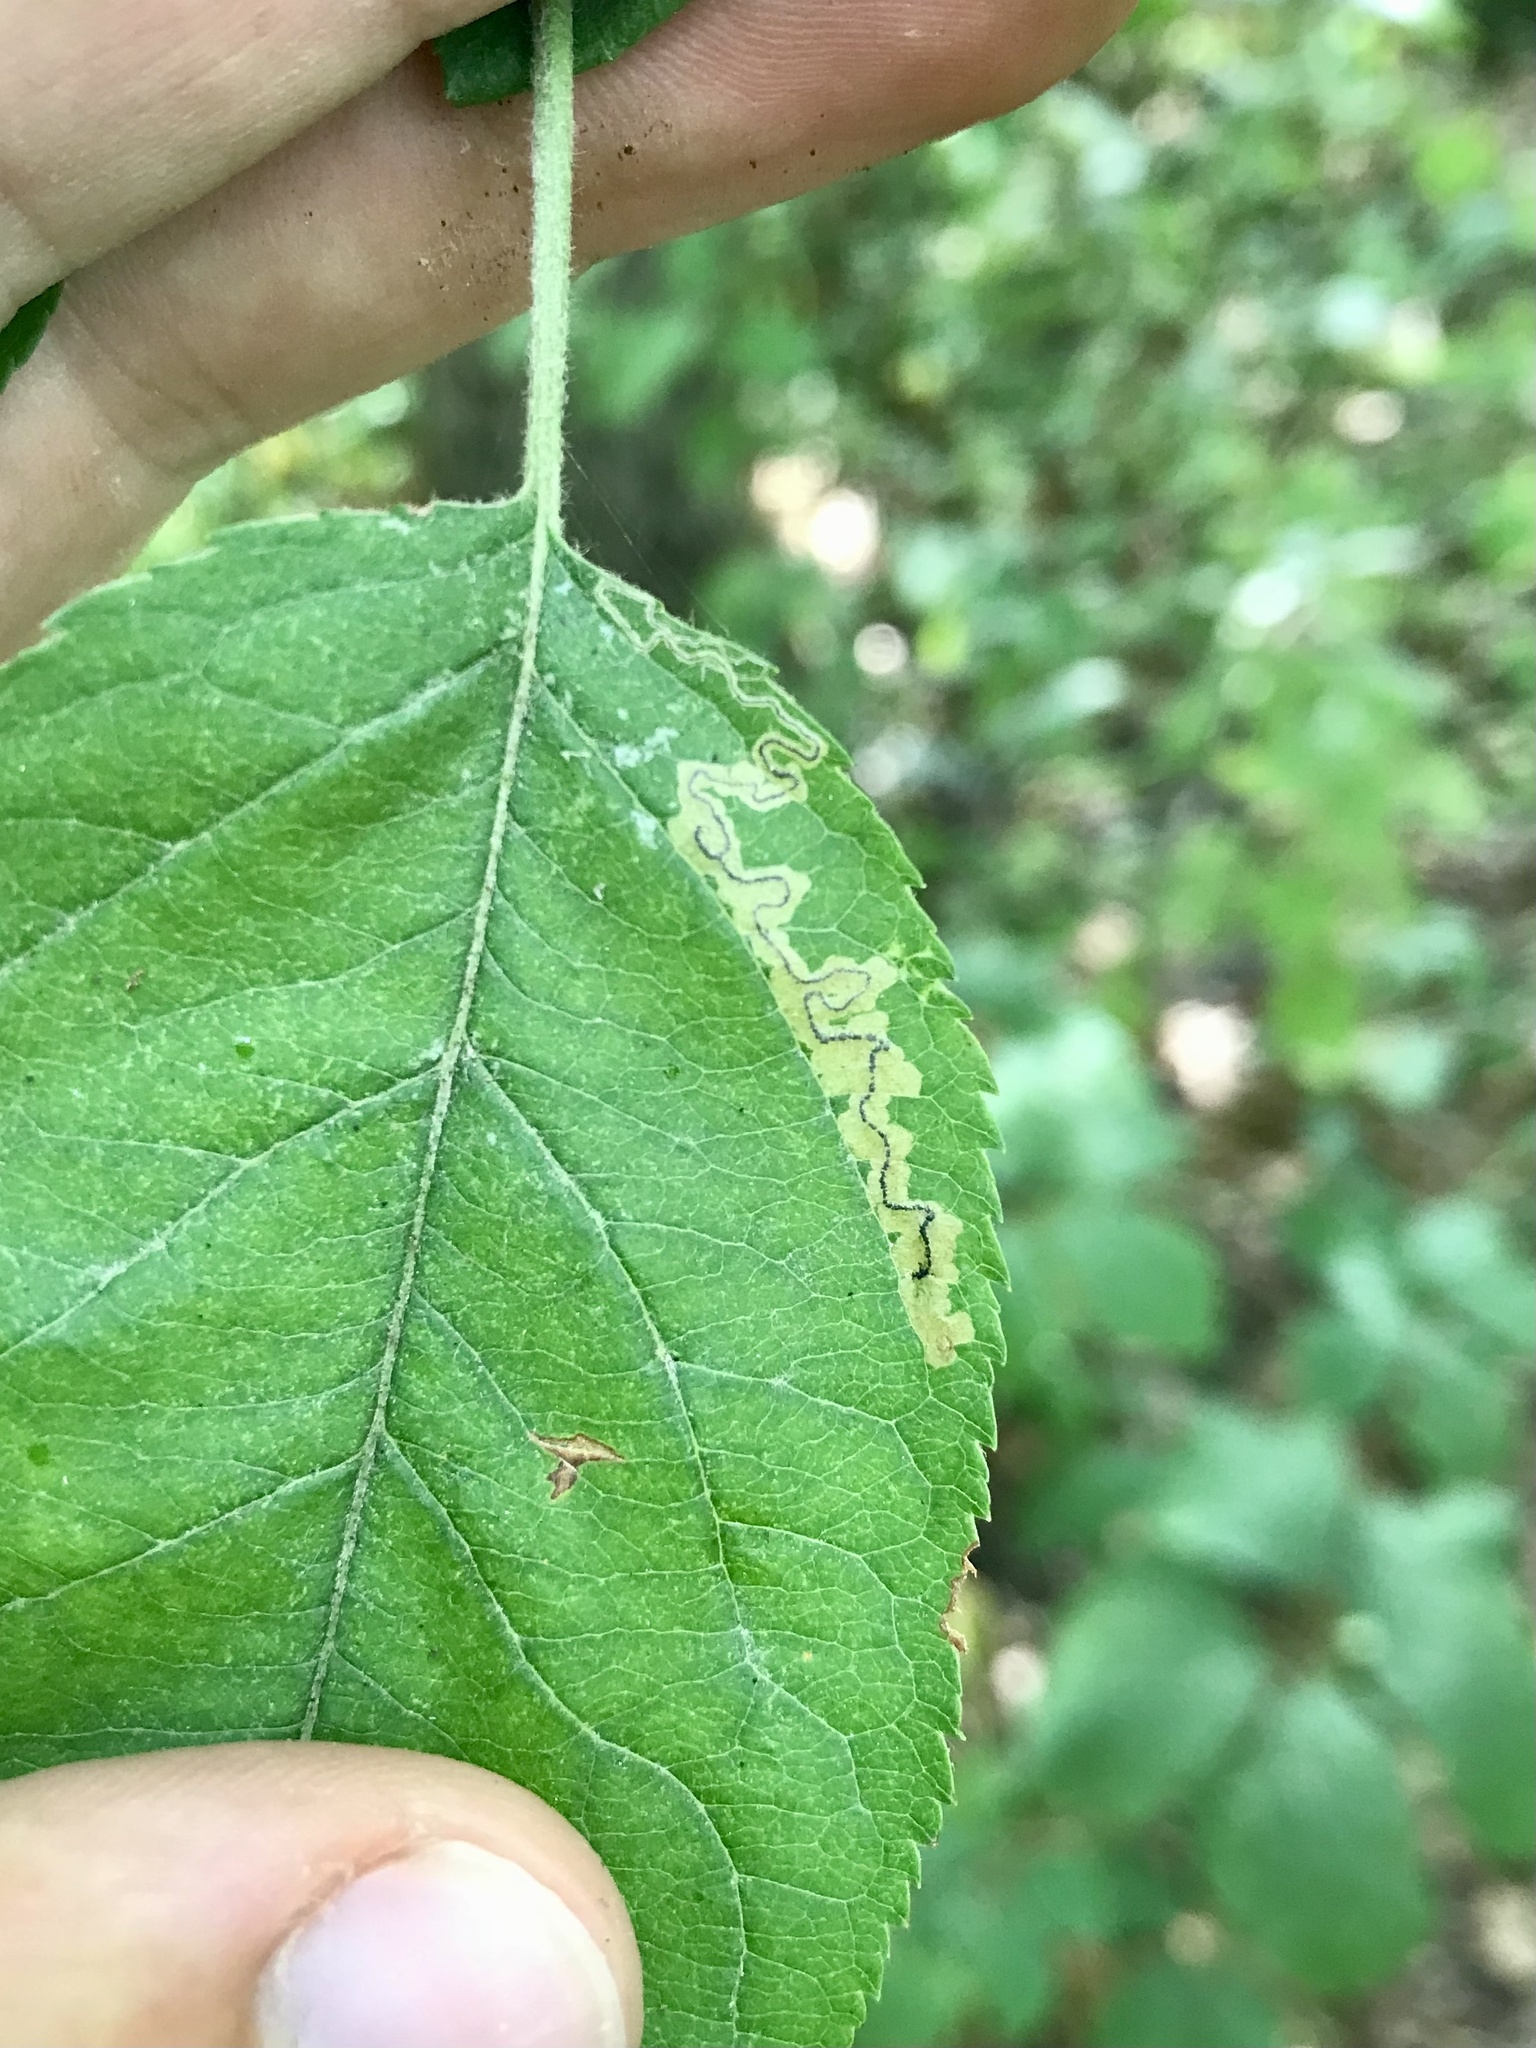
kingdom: Animalia
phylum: Arthropoda
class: Insecta
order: Lepidoptera
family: Nepticulidae
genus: Stigmella
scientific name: Stigmella purpuratella
